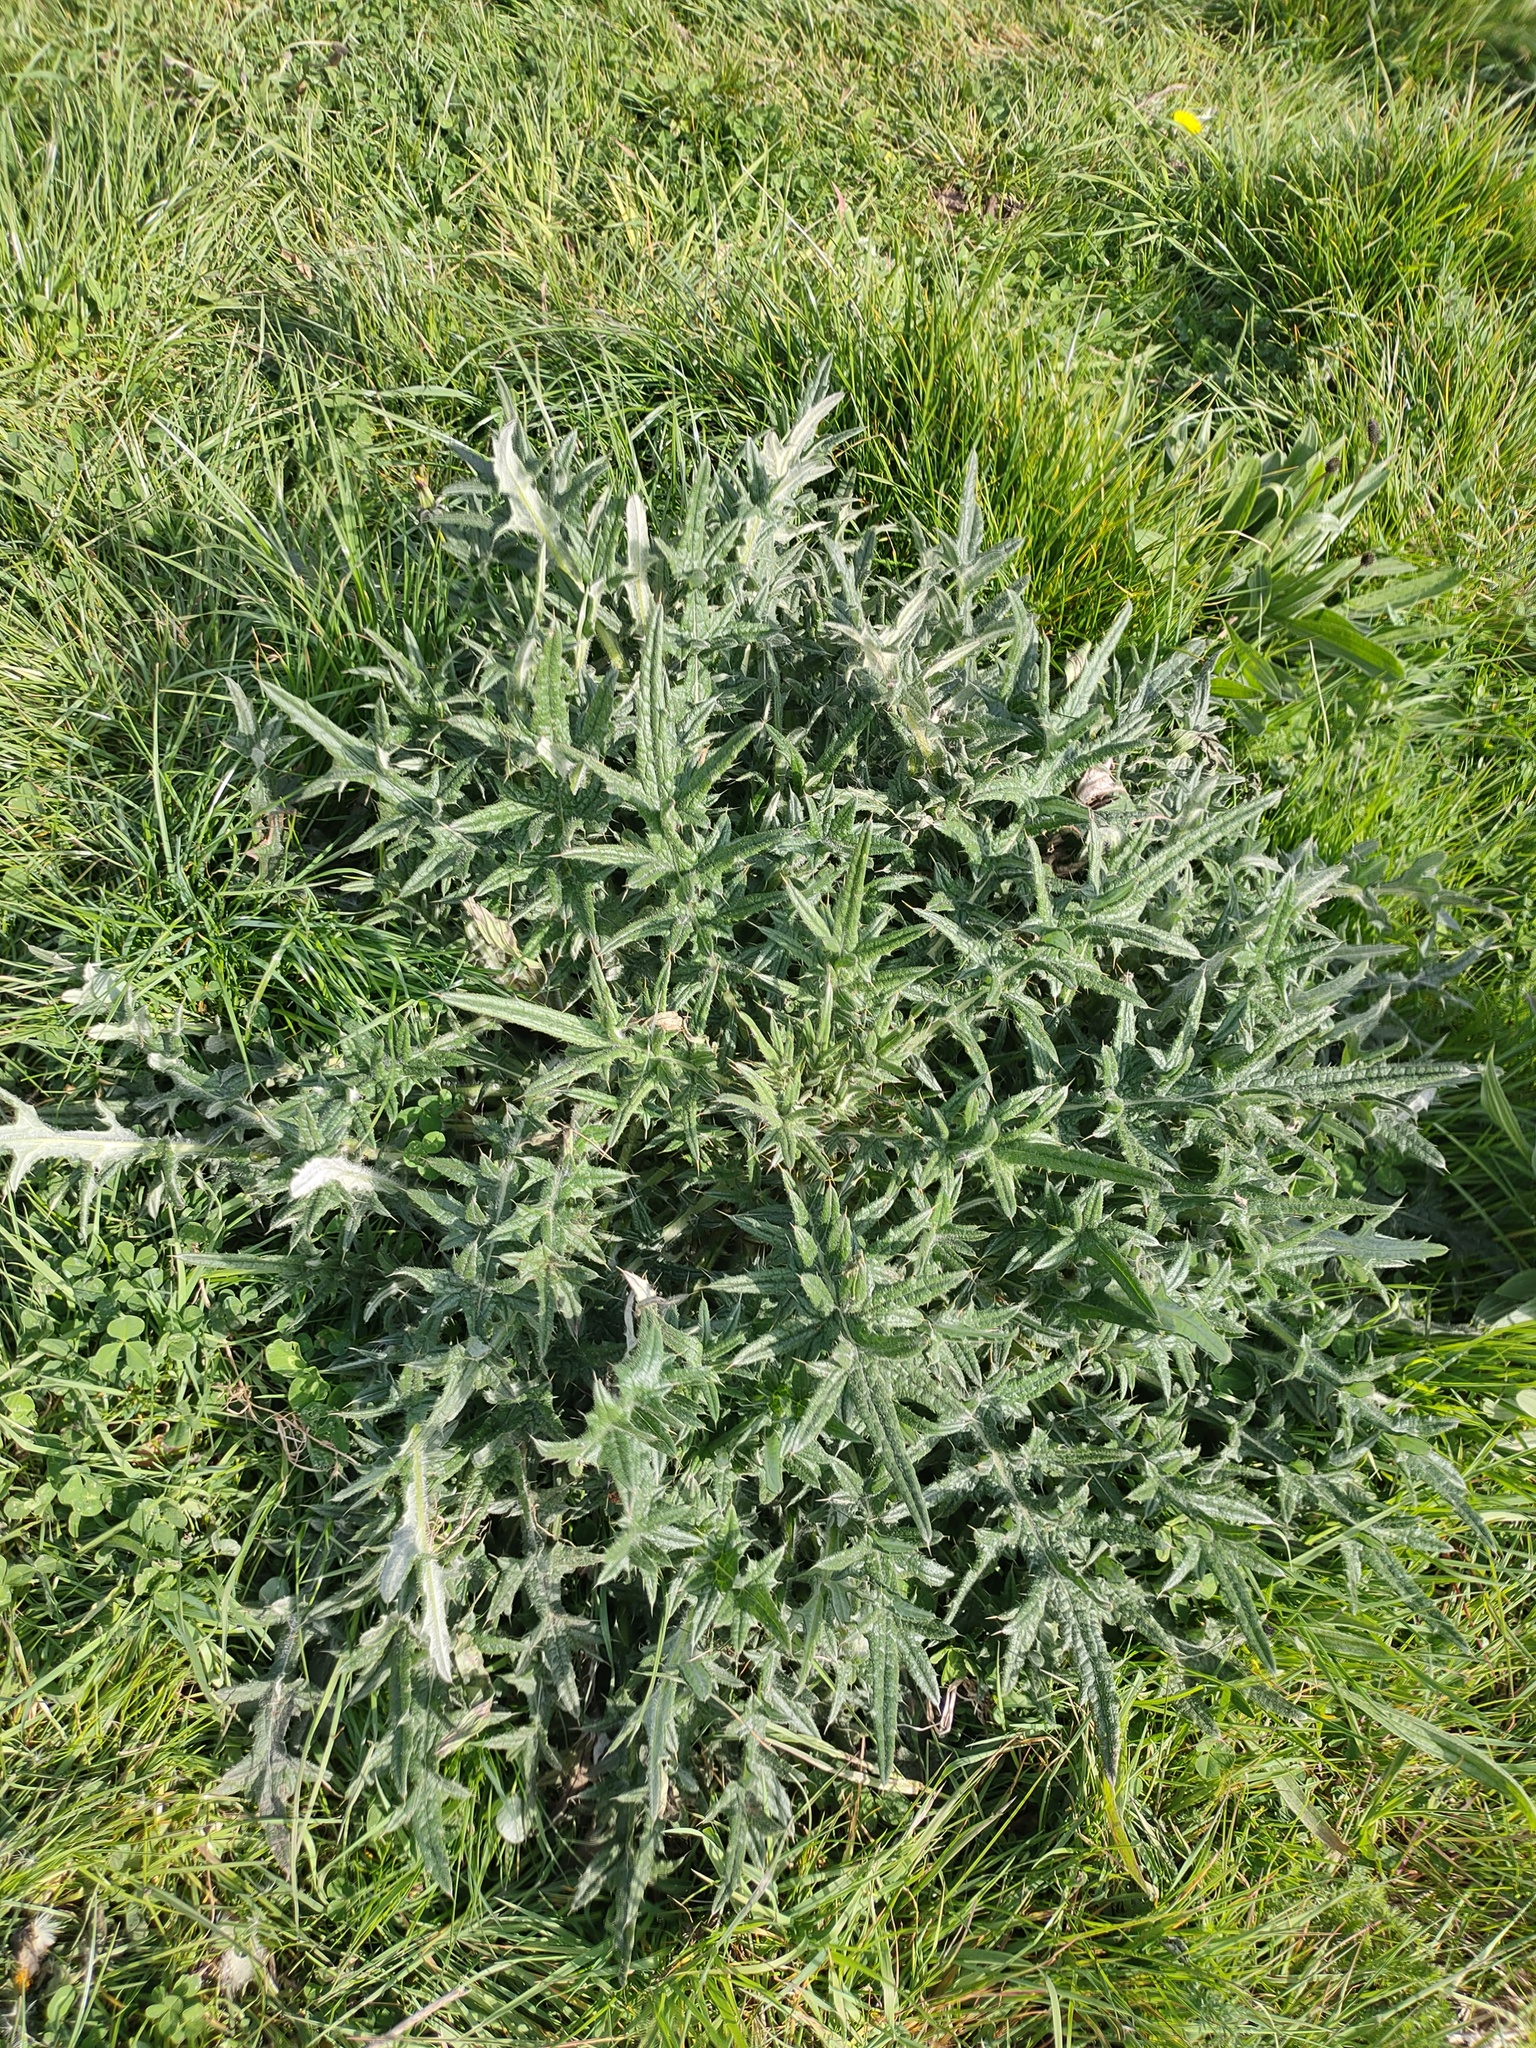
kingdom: Plantae
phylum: Tracheophyta
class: Magnoliopsida
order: Asterales
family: Asteraceae
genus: Cirsium
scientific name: Cirsium vulgare
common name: Bull thistle
